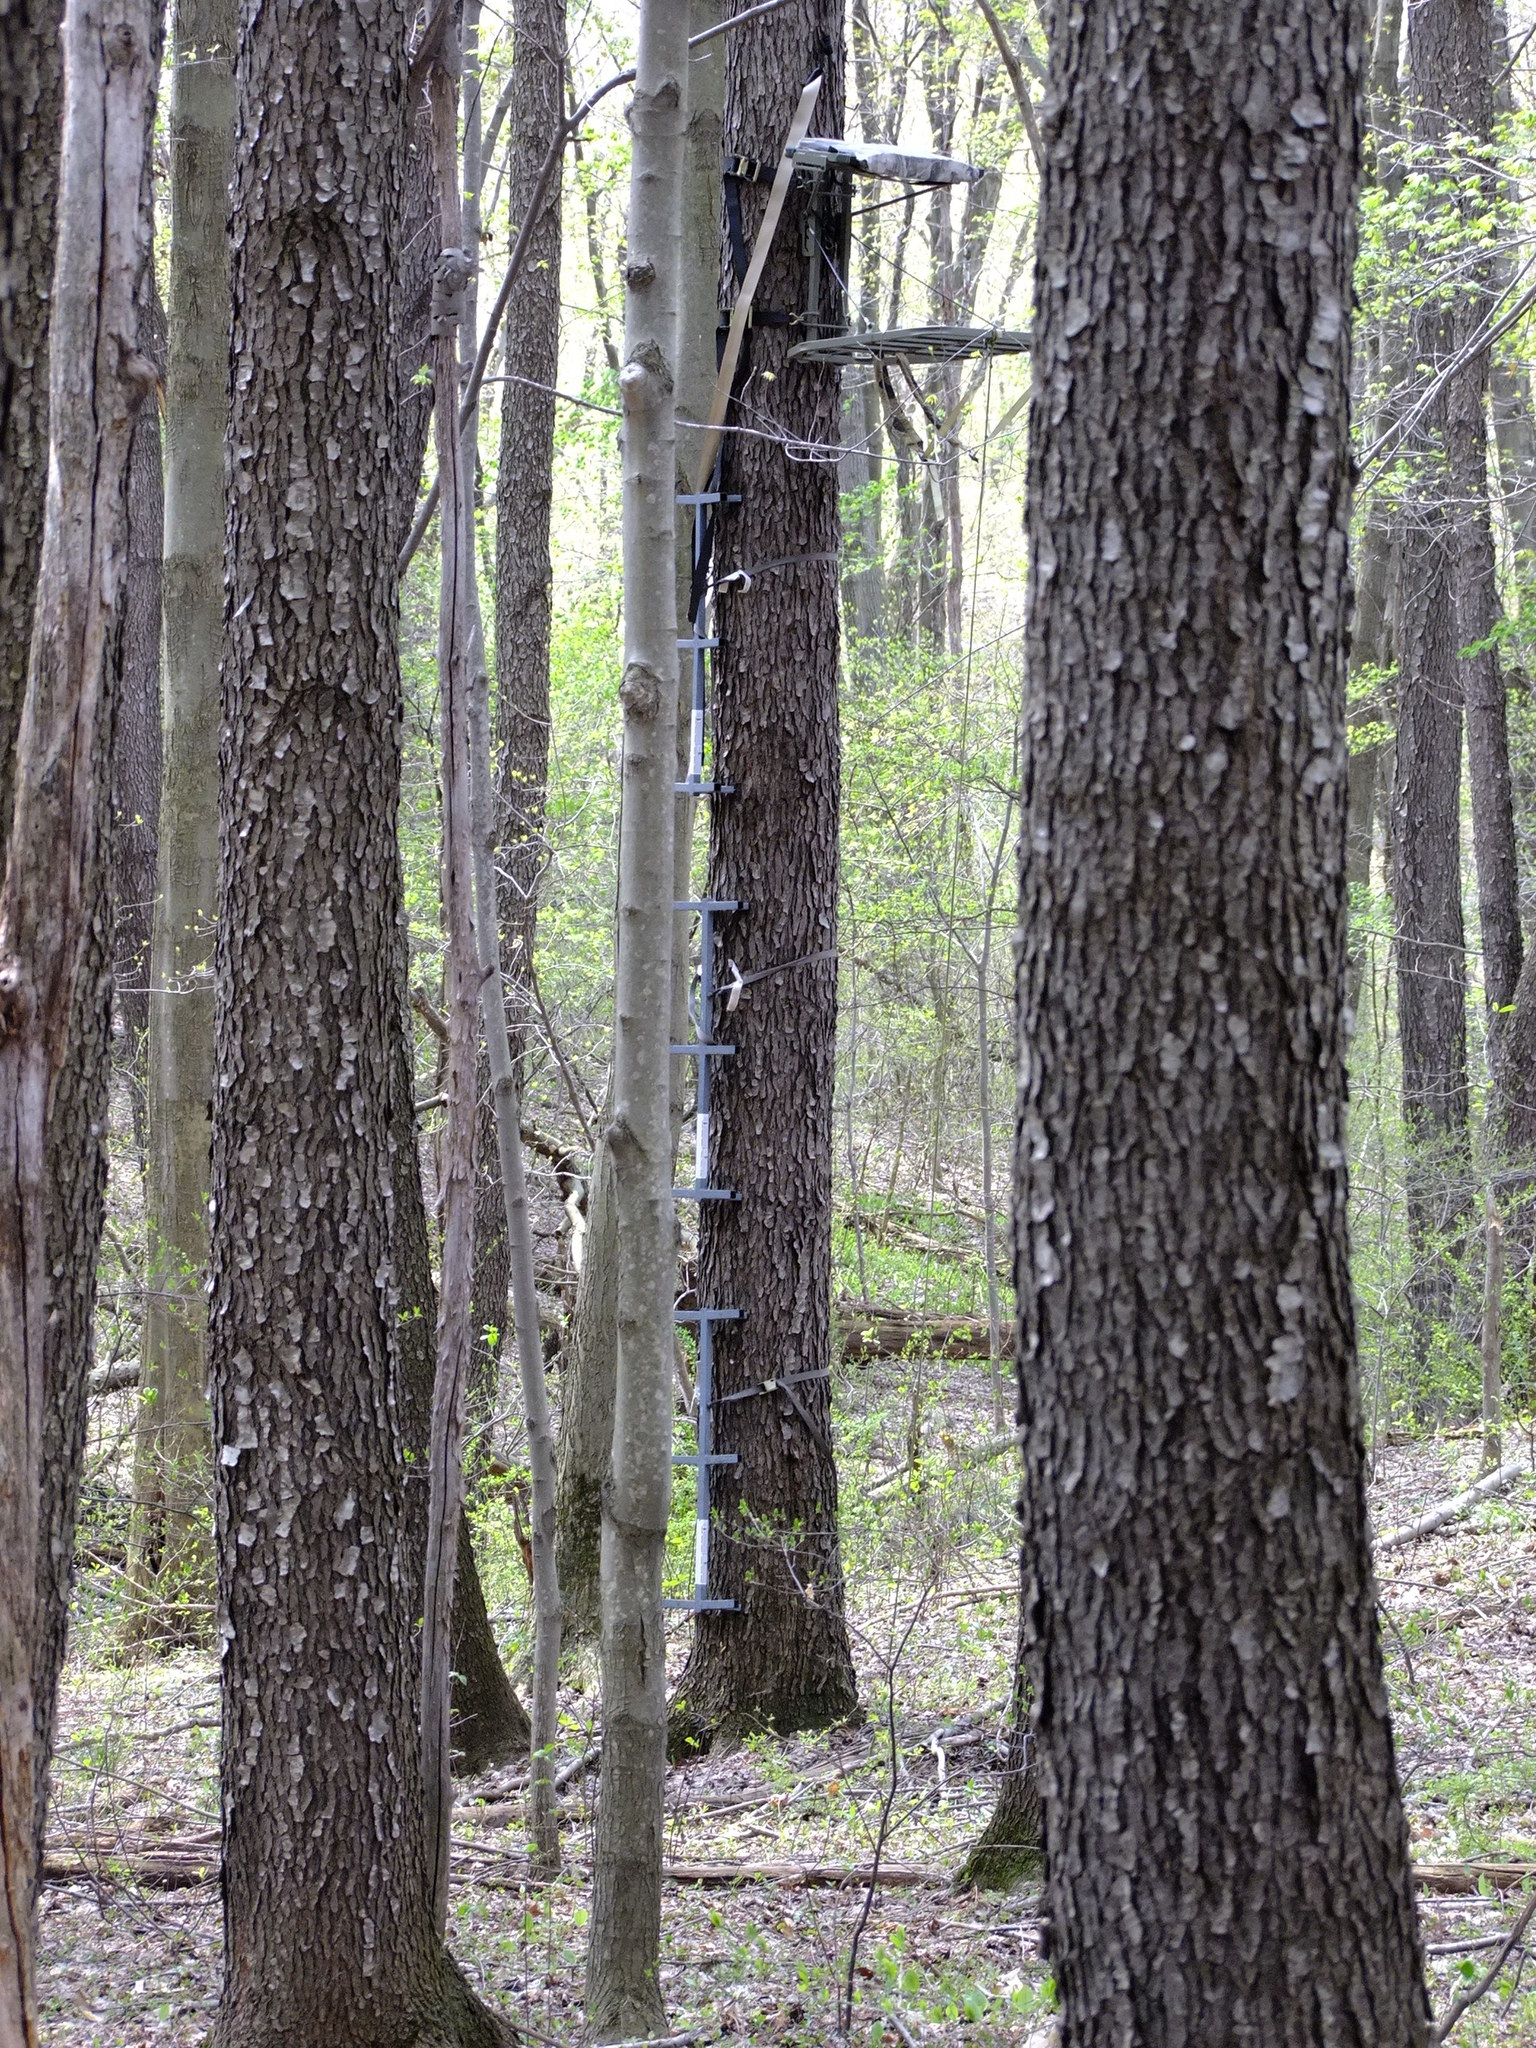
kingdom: Plantae
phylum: Tracheophyta
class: Magnoliopsida
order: Rosales
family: Rosaceae
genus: Prunus
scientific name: Prunus serotina
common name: Black cherry
